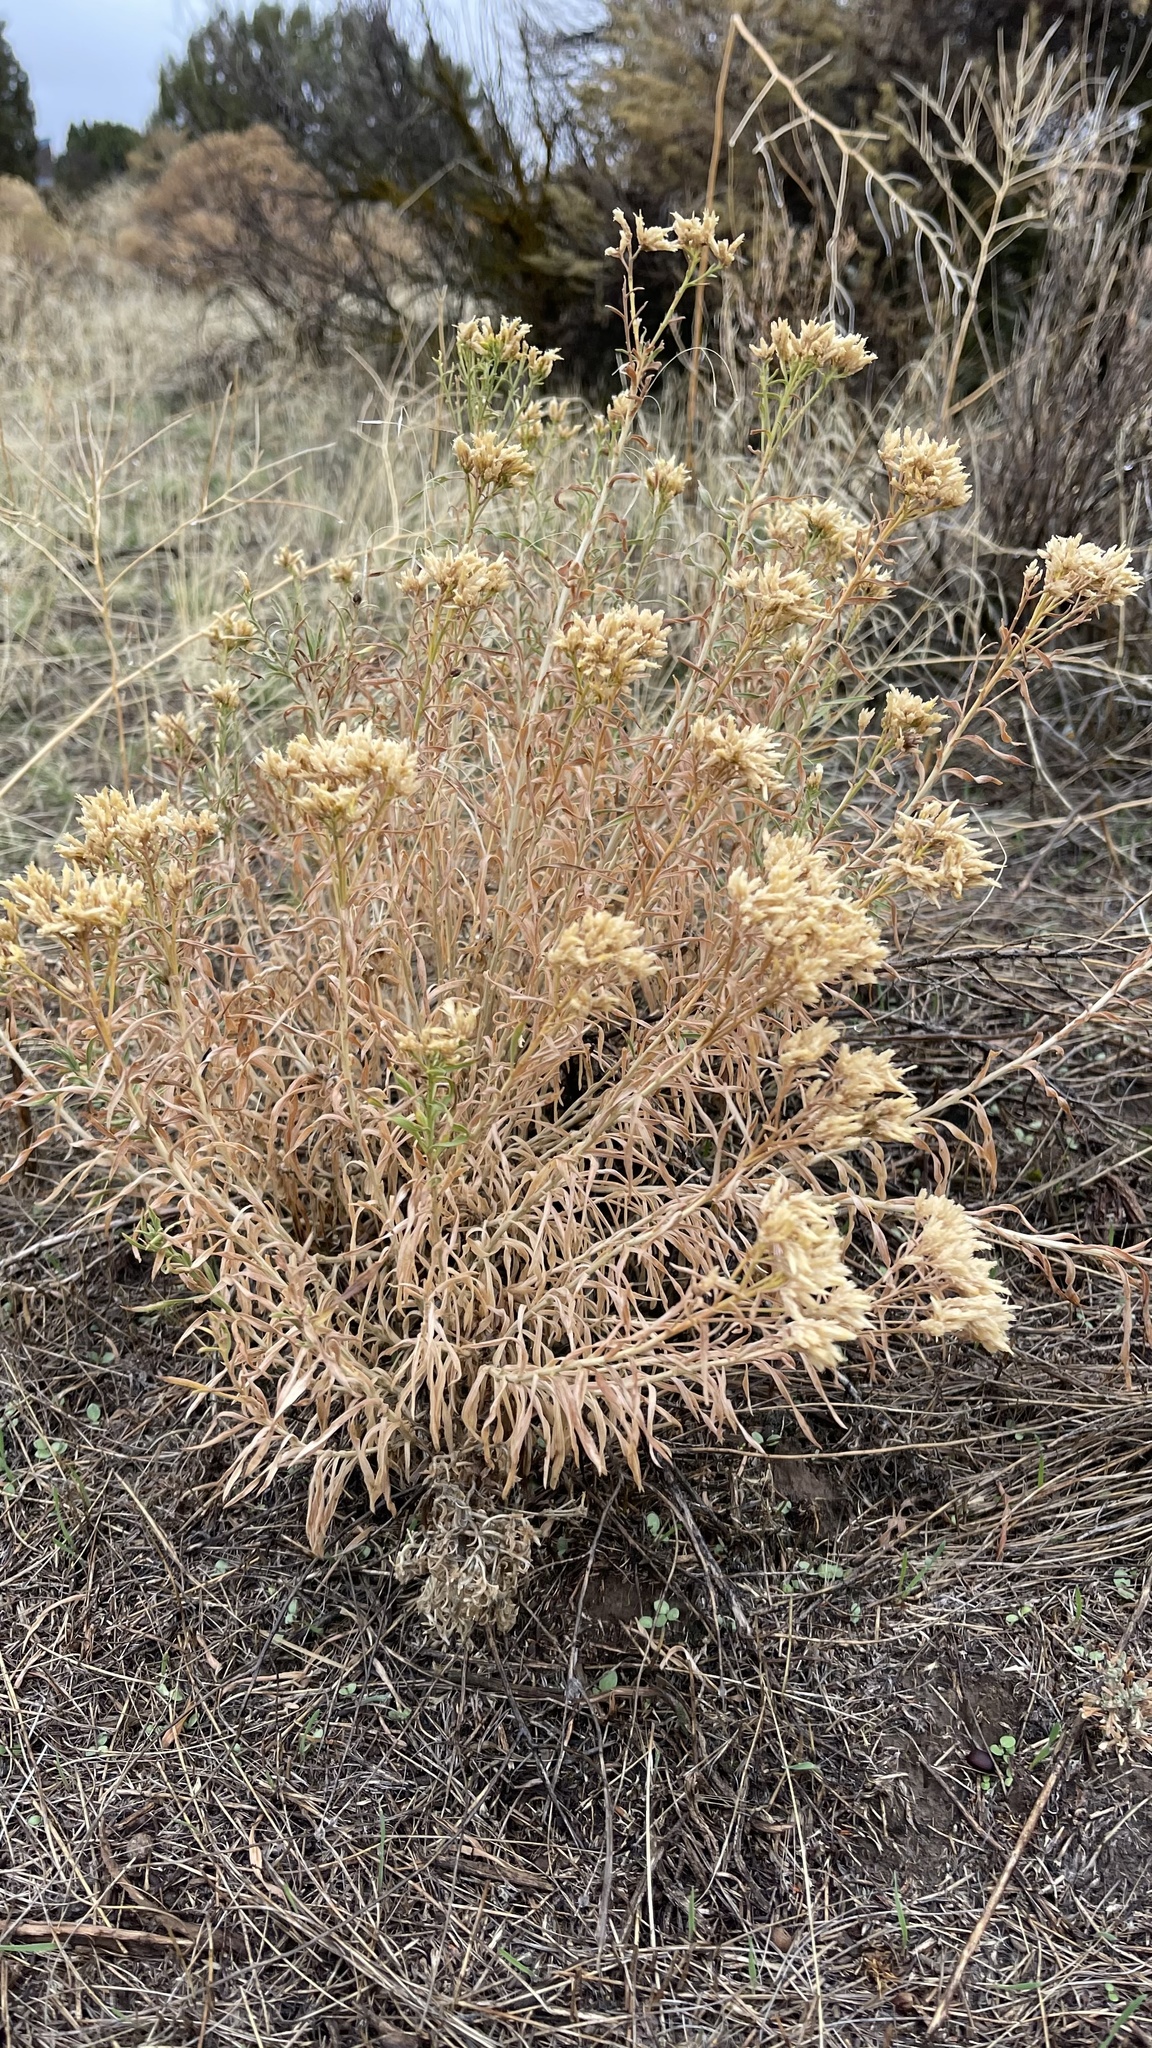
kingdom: Plantae
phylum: Tracheophyta
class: Magnoliopsida
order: Asterales
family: Asteraceae
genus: Chrysothamnus
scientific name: Chrysothamnus viscidiflorus
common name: Yellow rabbitbrush
